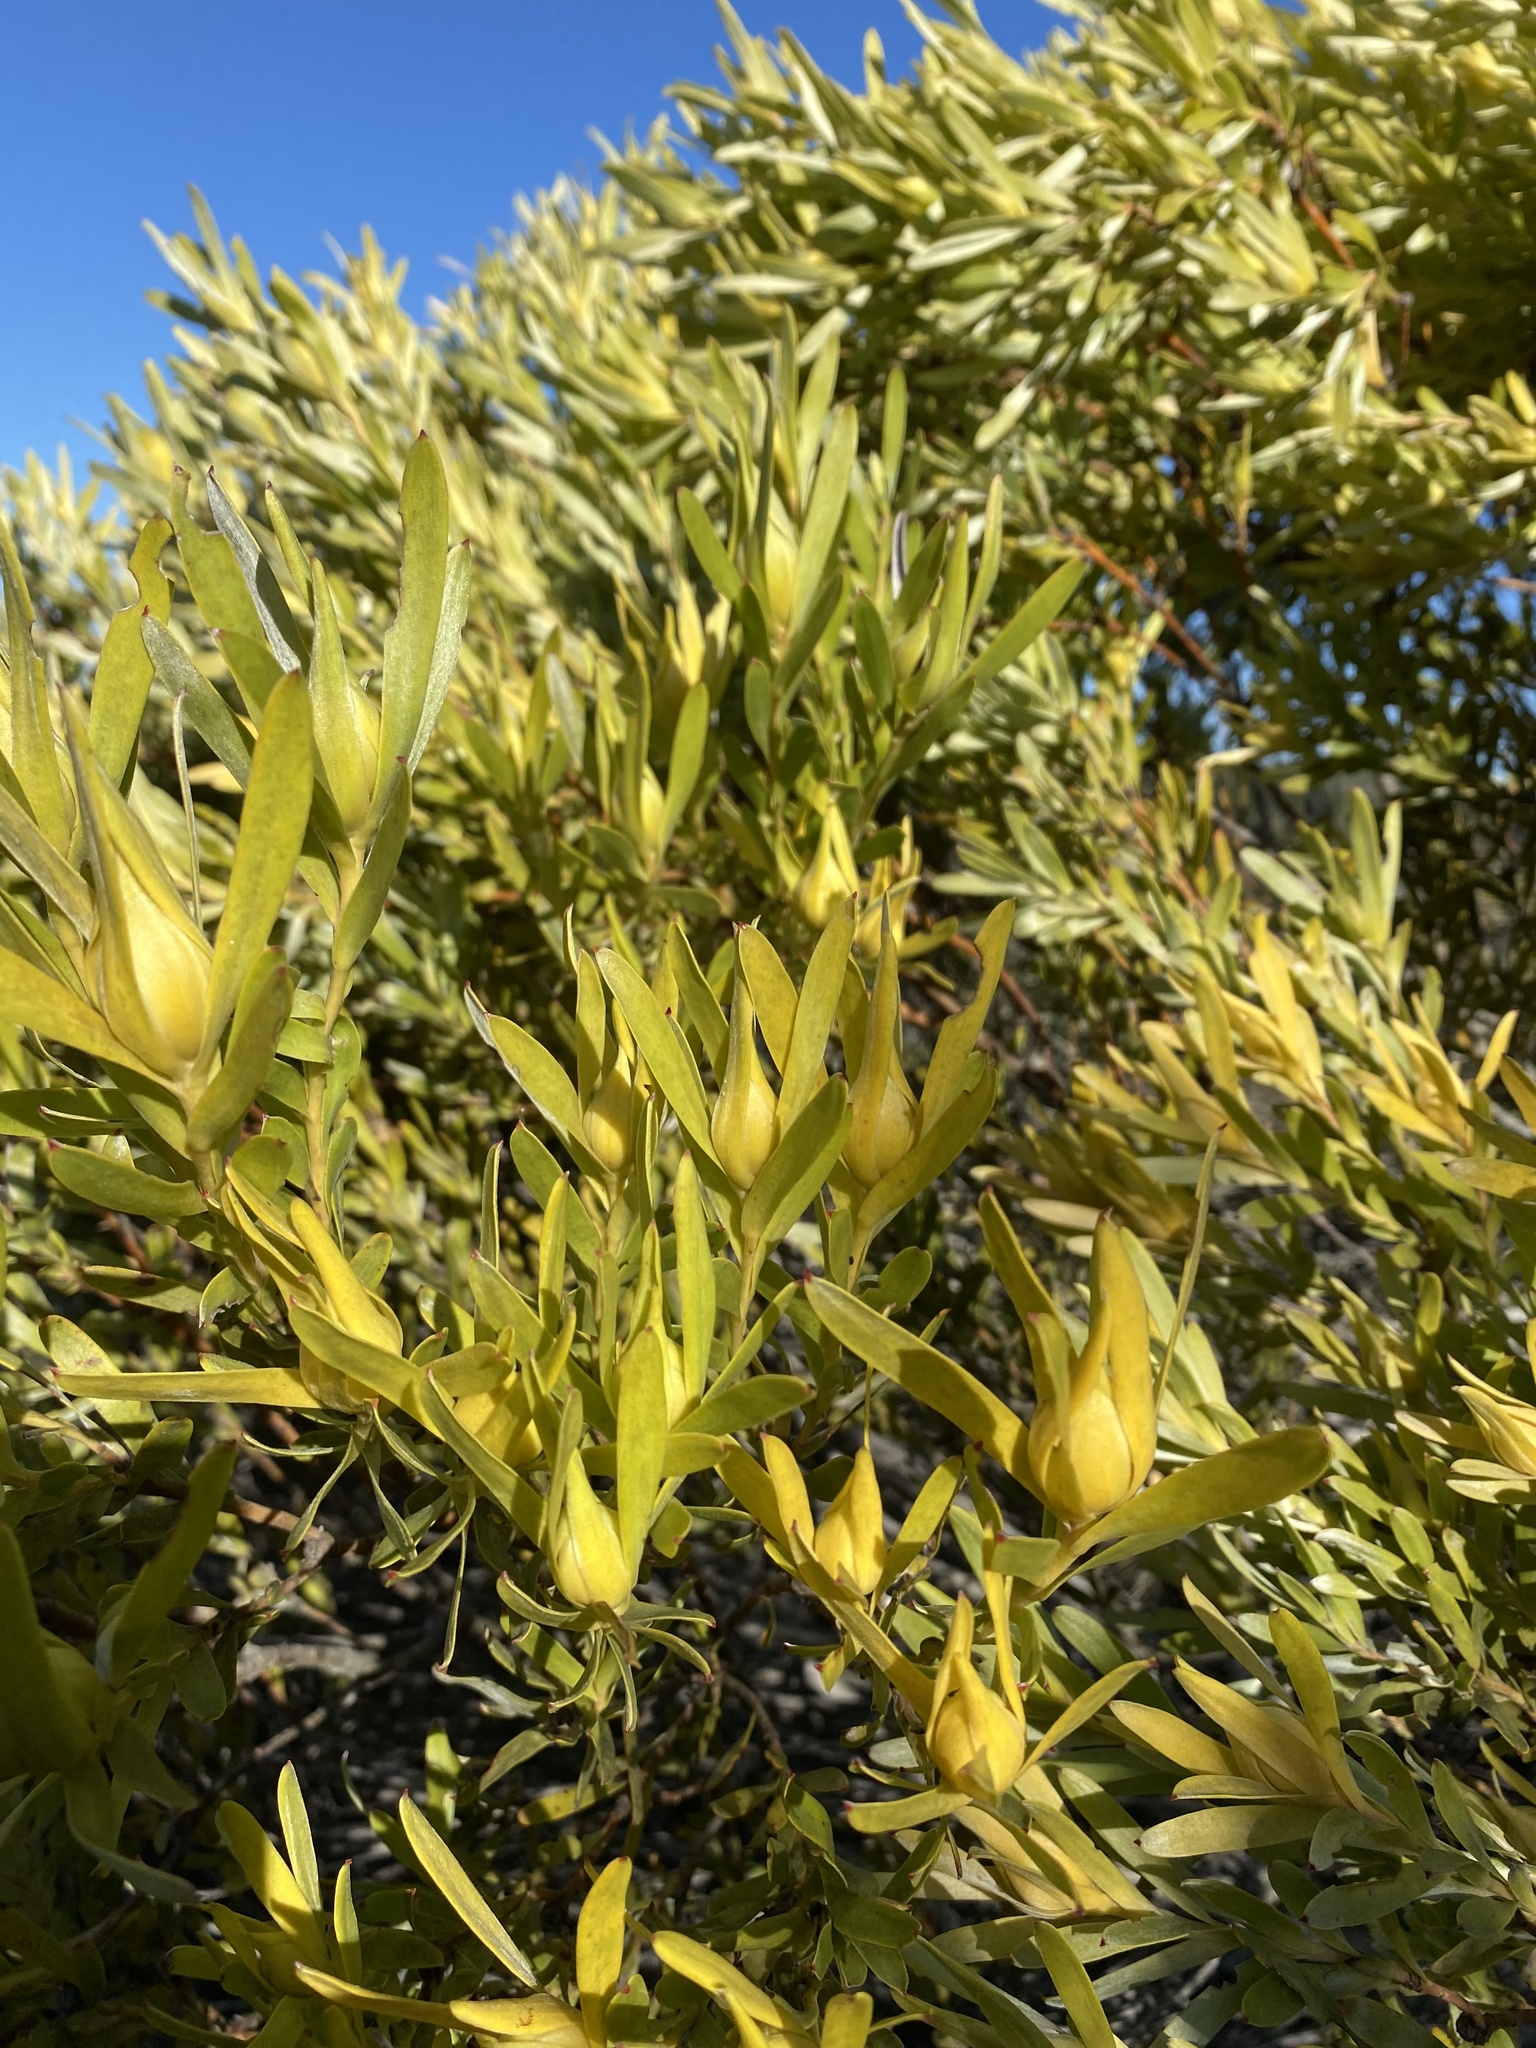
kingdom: Plantae
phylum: Tracheophyta
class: Magnoliopsida
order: Proteales
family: Proteaceae
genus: Leucadendron
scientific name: Leucadendron meridianum
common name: Limestone conebush
